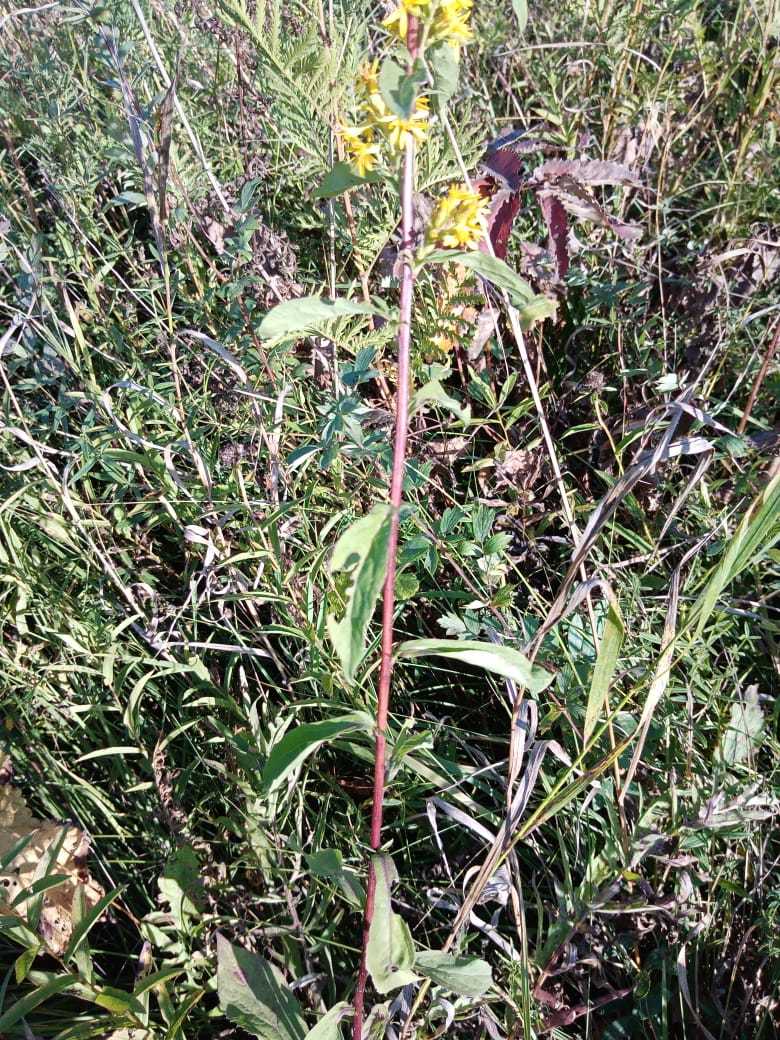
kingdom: Plantae
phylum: Tracheophyta
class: Magnoliopsida
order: Asterales
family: Asteraceae
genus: Solidago
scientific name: Solidago virgaurea
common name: Goldenrod
